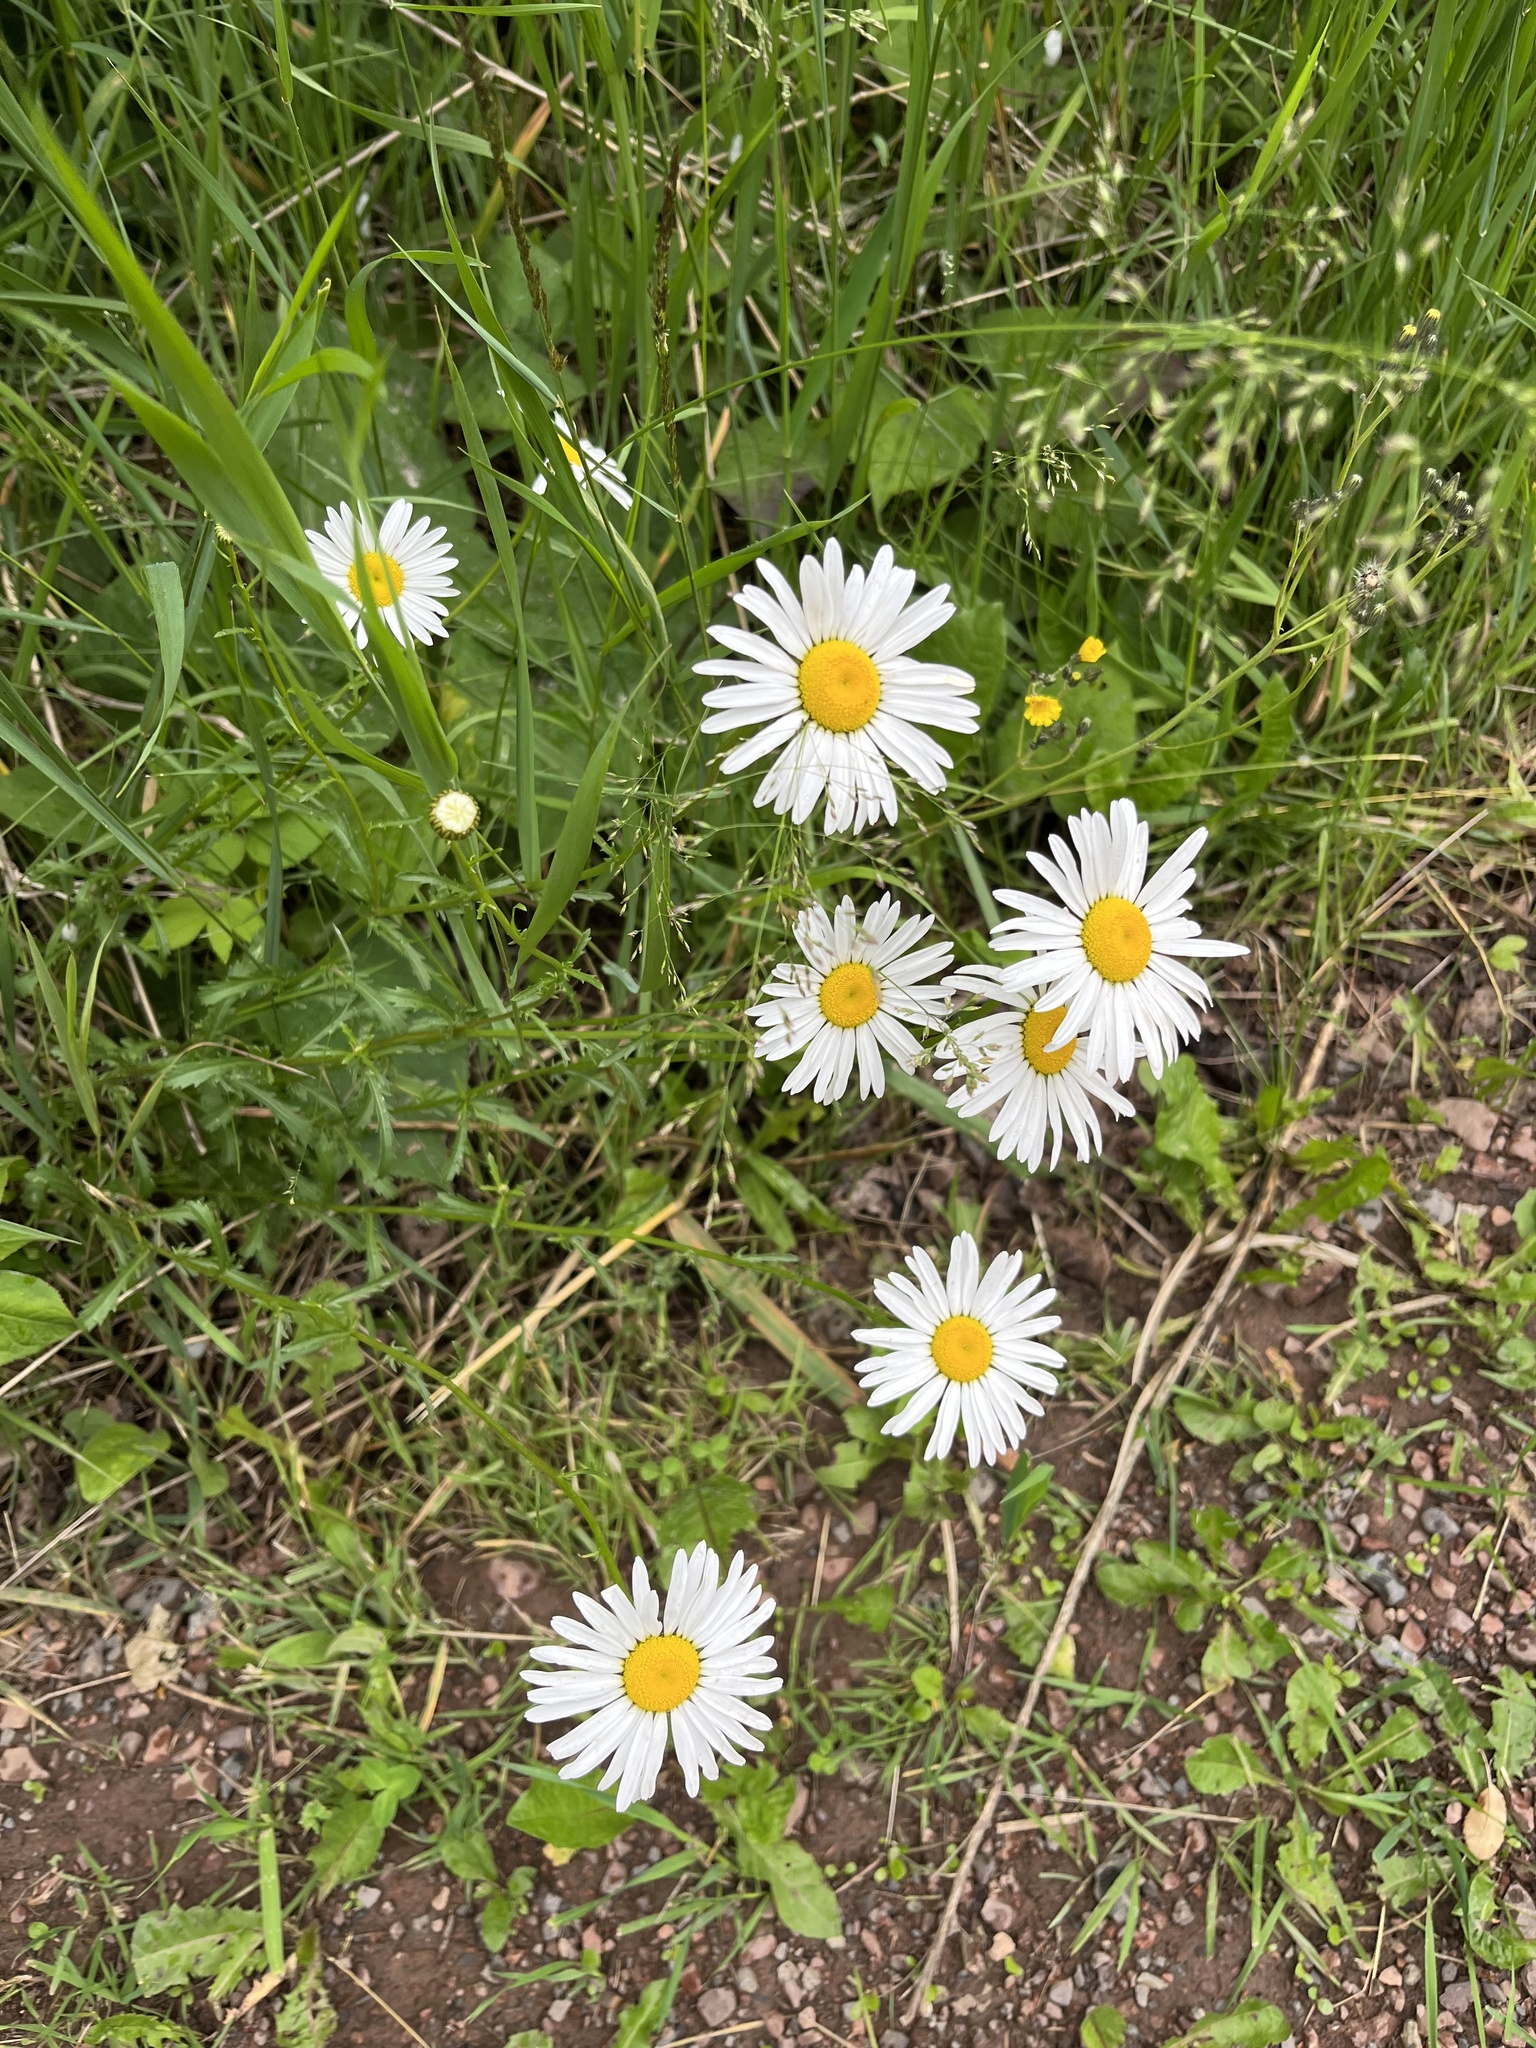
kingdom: Plantae
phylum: Tracheophyta
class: Magnoliopsida
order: Asterales
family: Asteraceae
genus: Leucanthemum
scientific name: Leucanthemum vulgare
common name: Oxeye daisy
